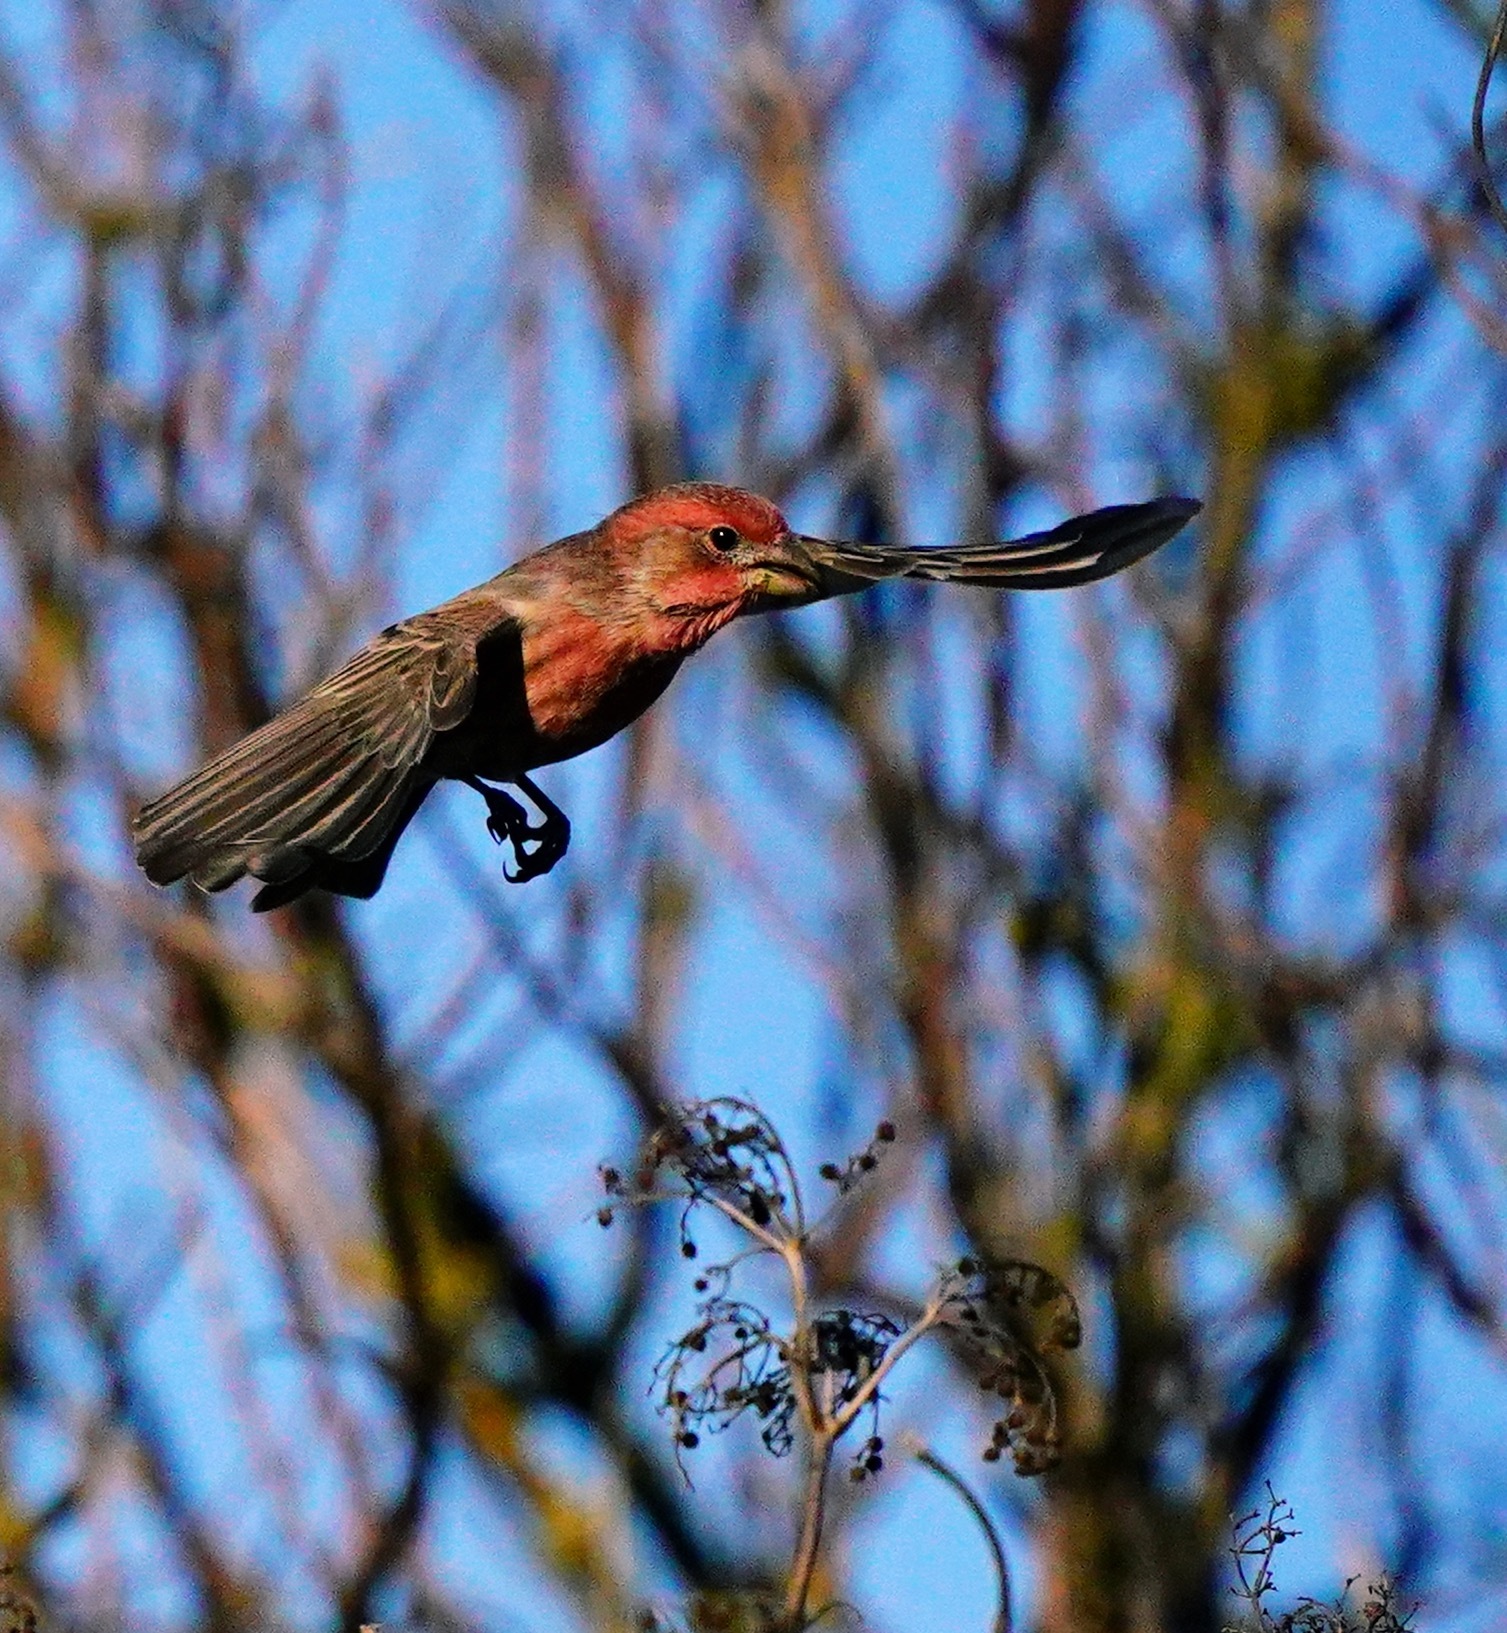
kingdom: Animalia
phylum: Chordata
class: Aves
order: Passeriformes
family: Fringillidae
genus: Haemorhous
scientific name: Haemorhous mexicanus
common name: House finch
